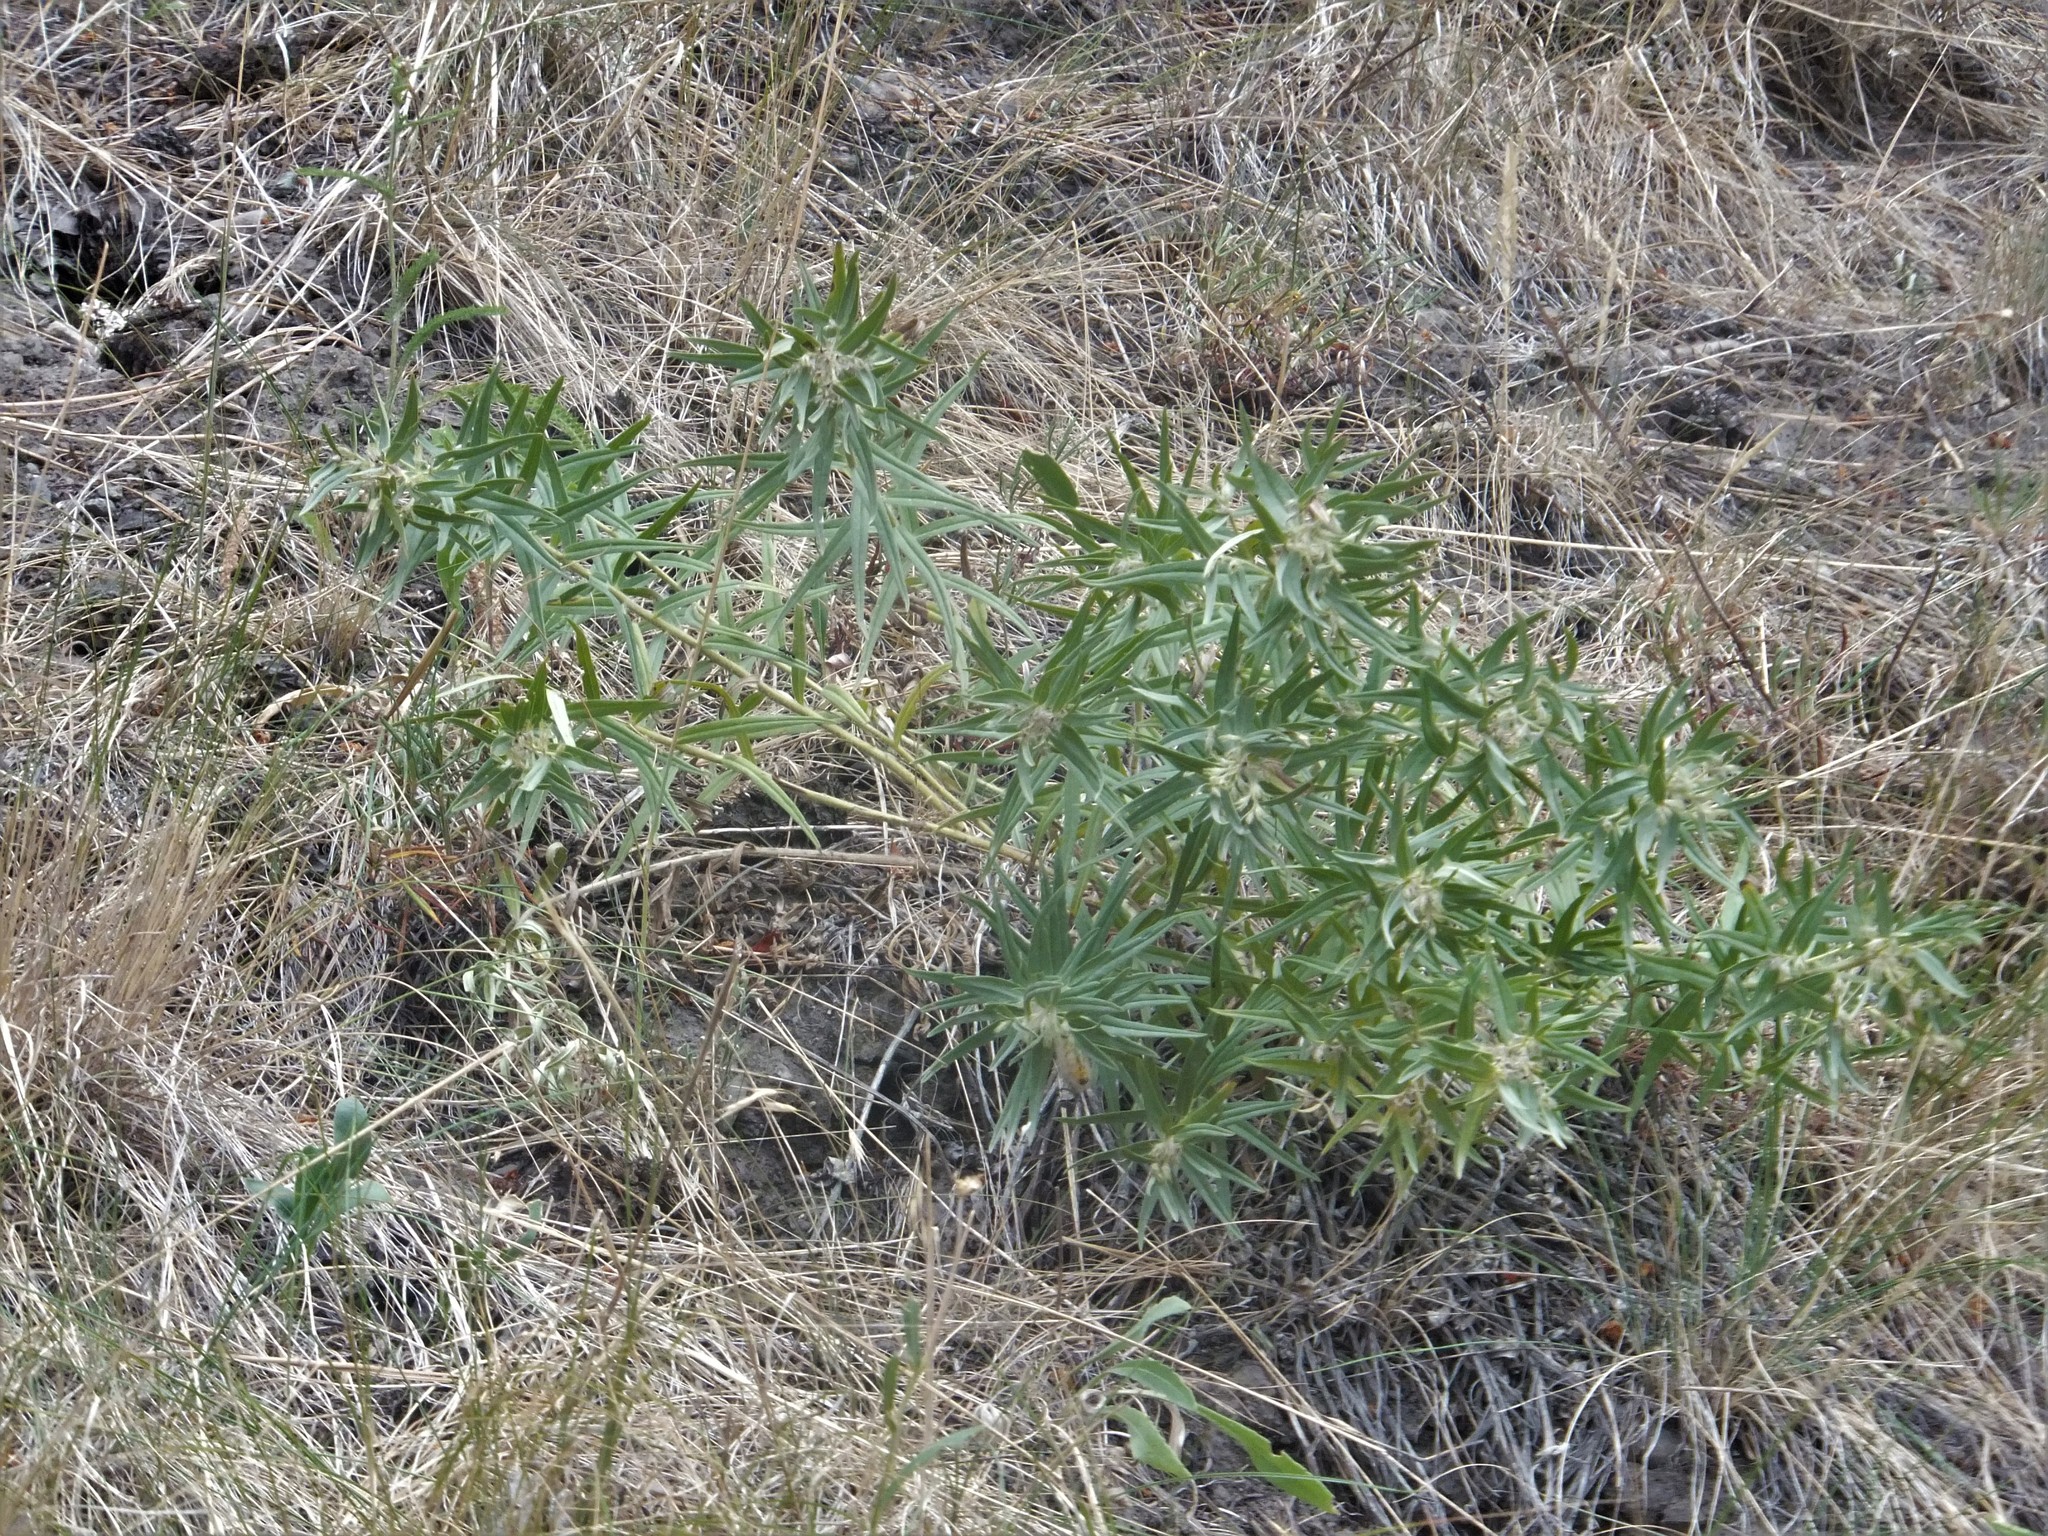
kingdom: Plantae
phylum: Tracheophyta
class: Magnoliopsida
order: Boraginales
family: Boraginaceae
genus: Lithospermum
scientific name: Lithospermum ruderale
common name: Western gromwell
